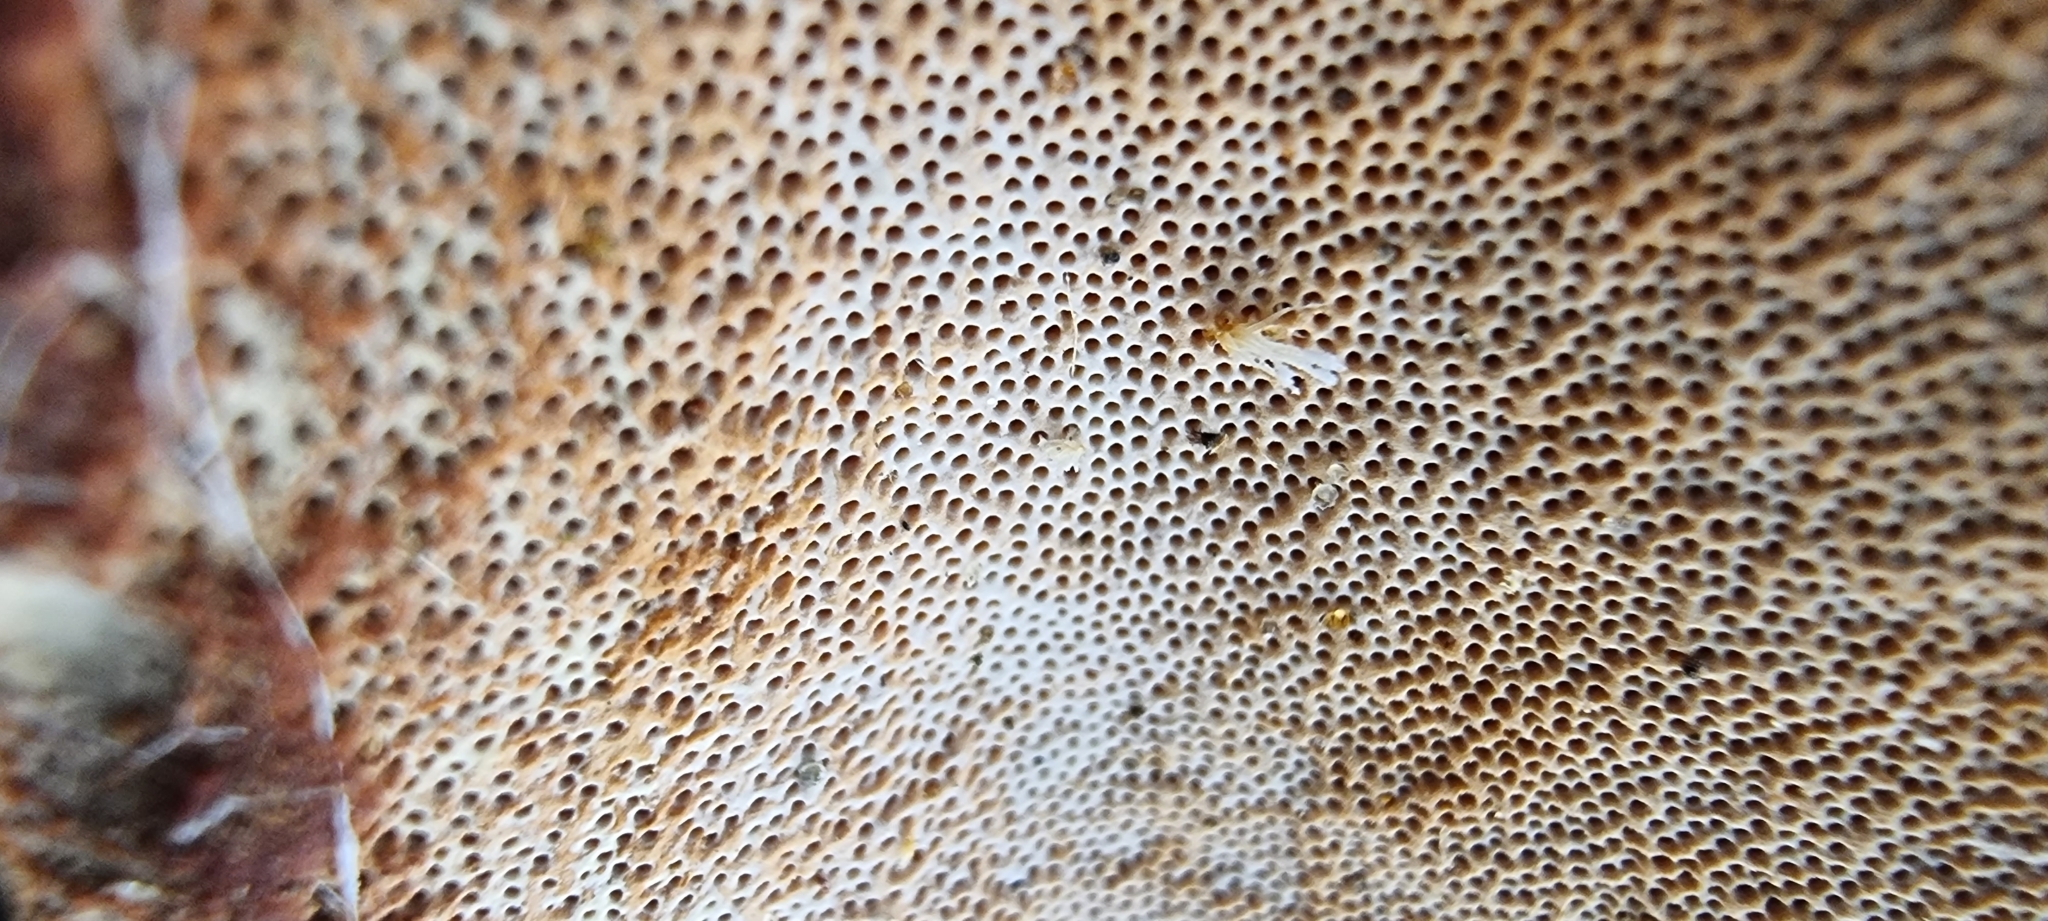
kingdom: Fungi
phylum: Basidiomycota
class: Agaricomycetes
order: Polyporales
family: Fomitopsidaceae
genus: Fomitopsis
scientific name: Fomitopsis pinicola
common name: Red-belted bracket
